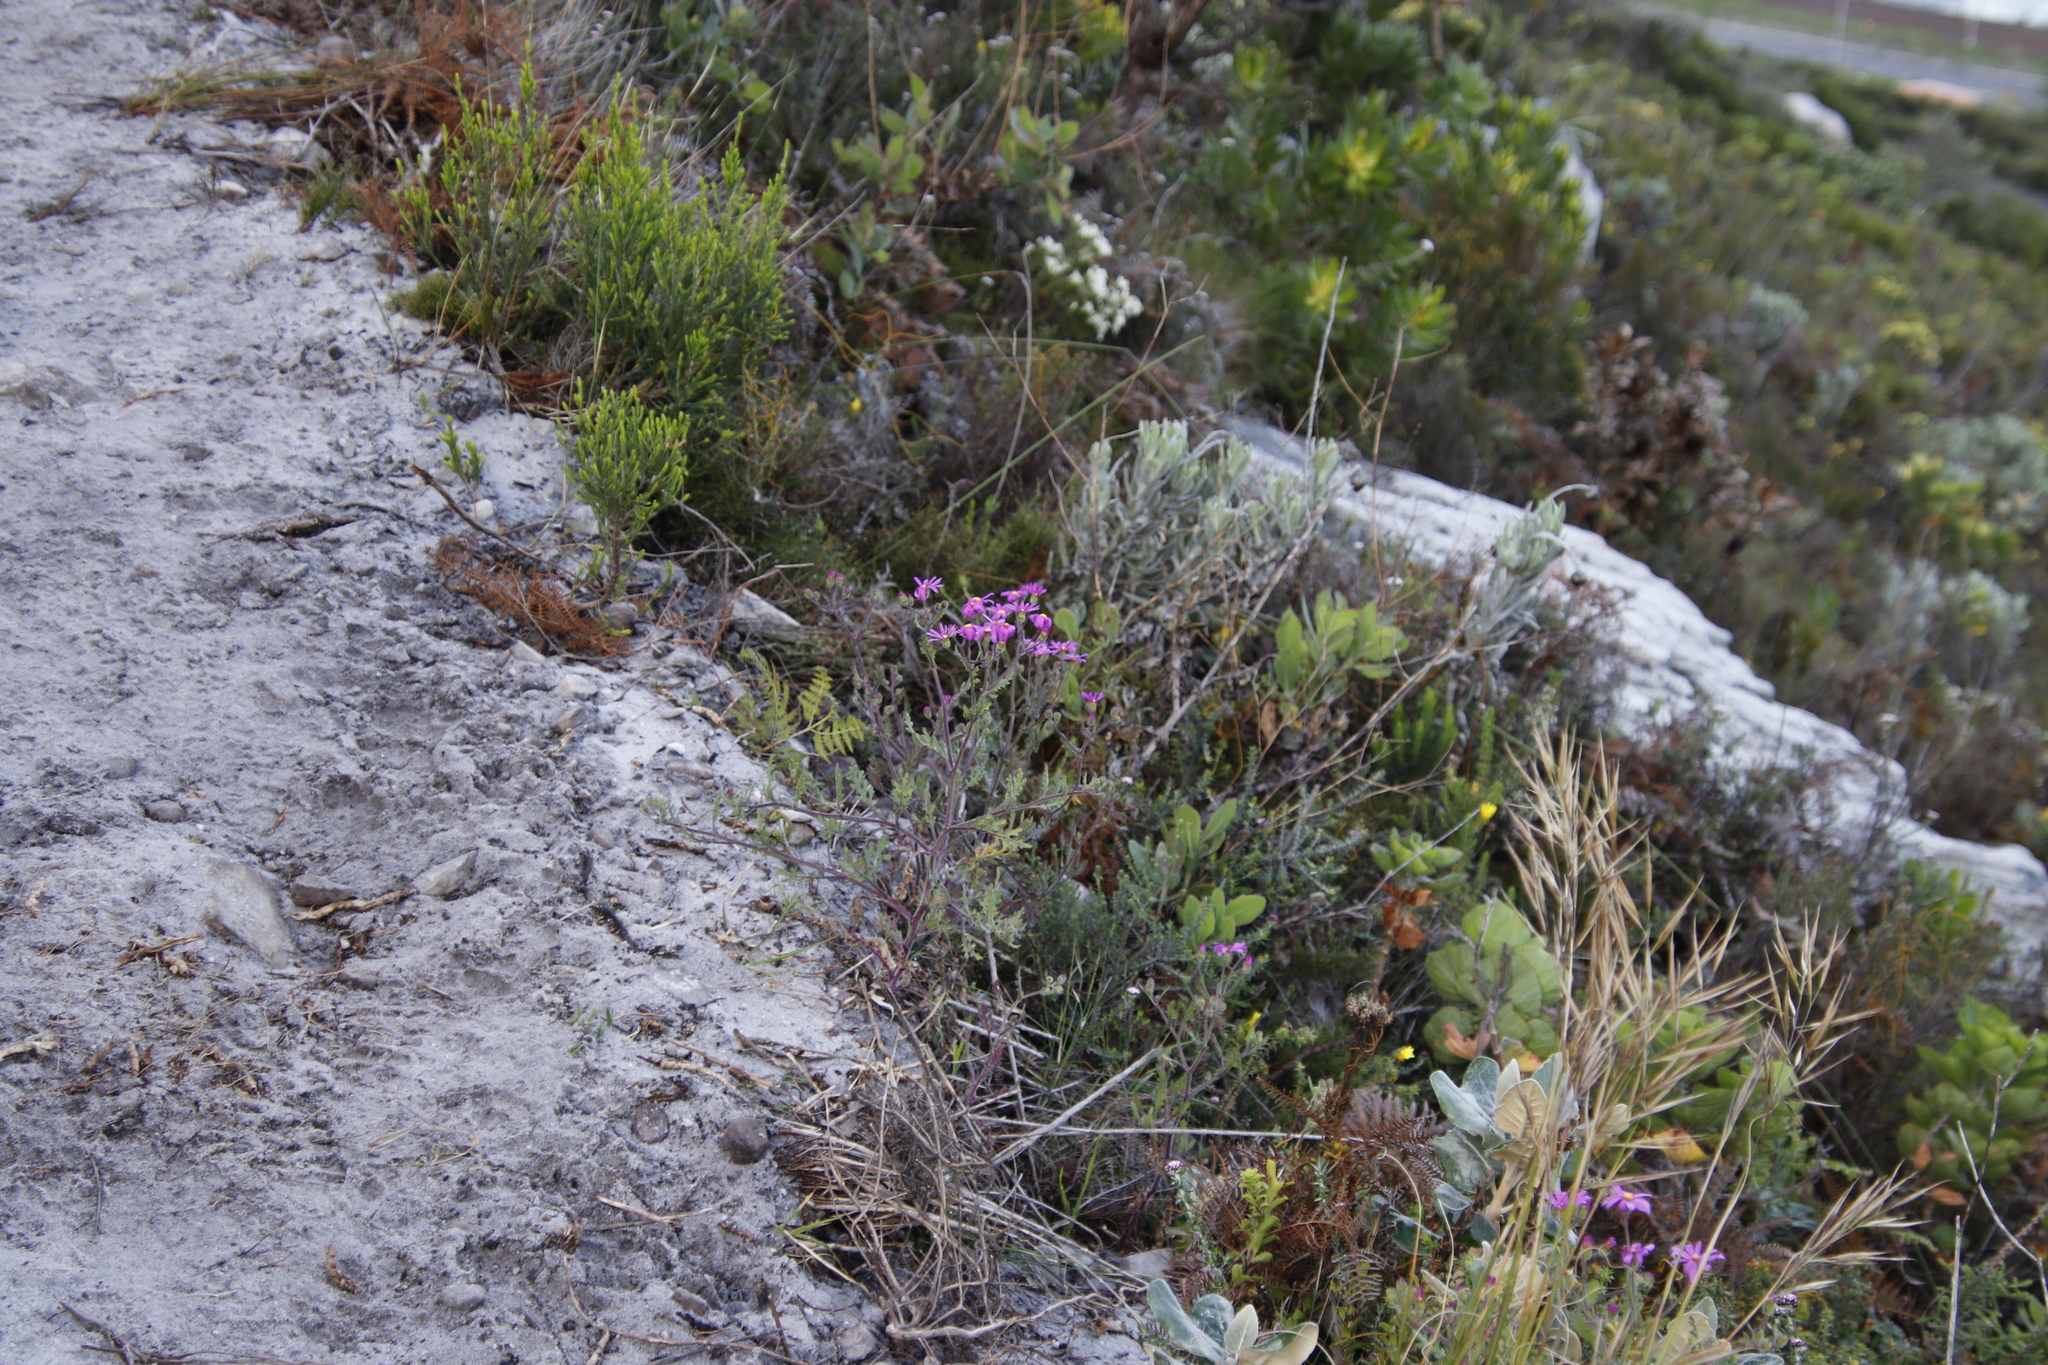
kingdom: Plantae
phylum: Tracheophyta
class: Magnoliopsida
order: Asterales
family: Asteraceae
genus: Senecio
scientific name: Senecio arenarius
